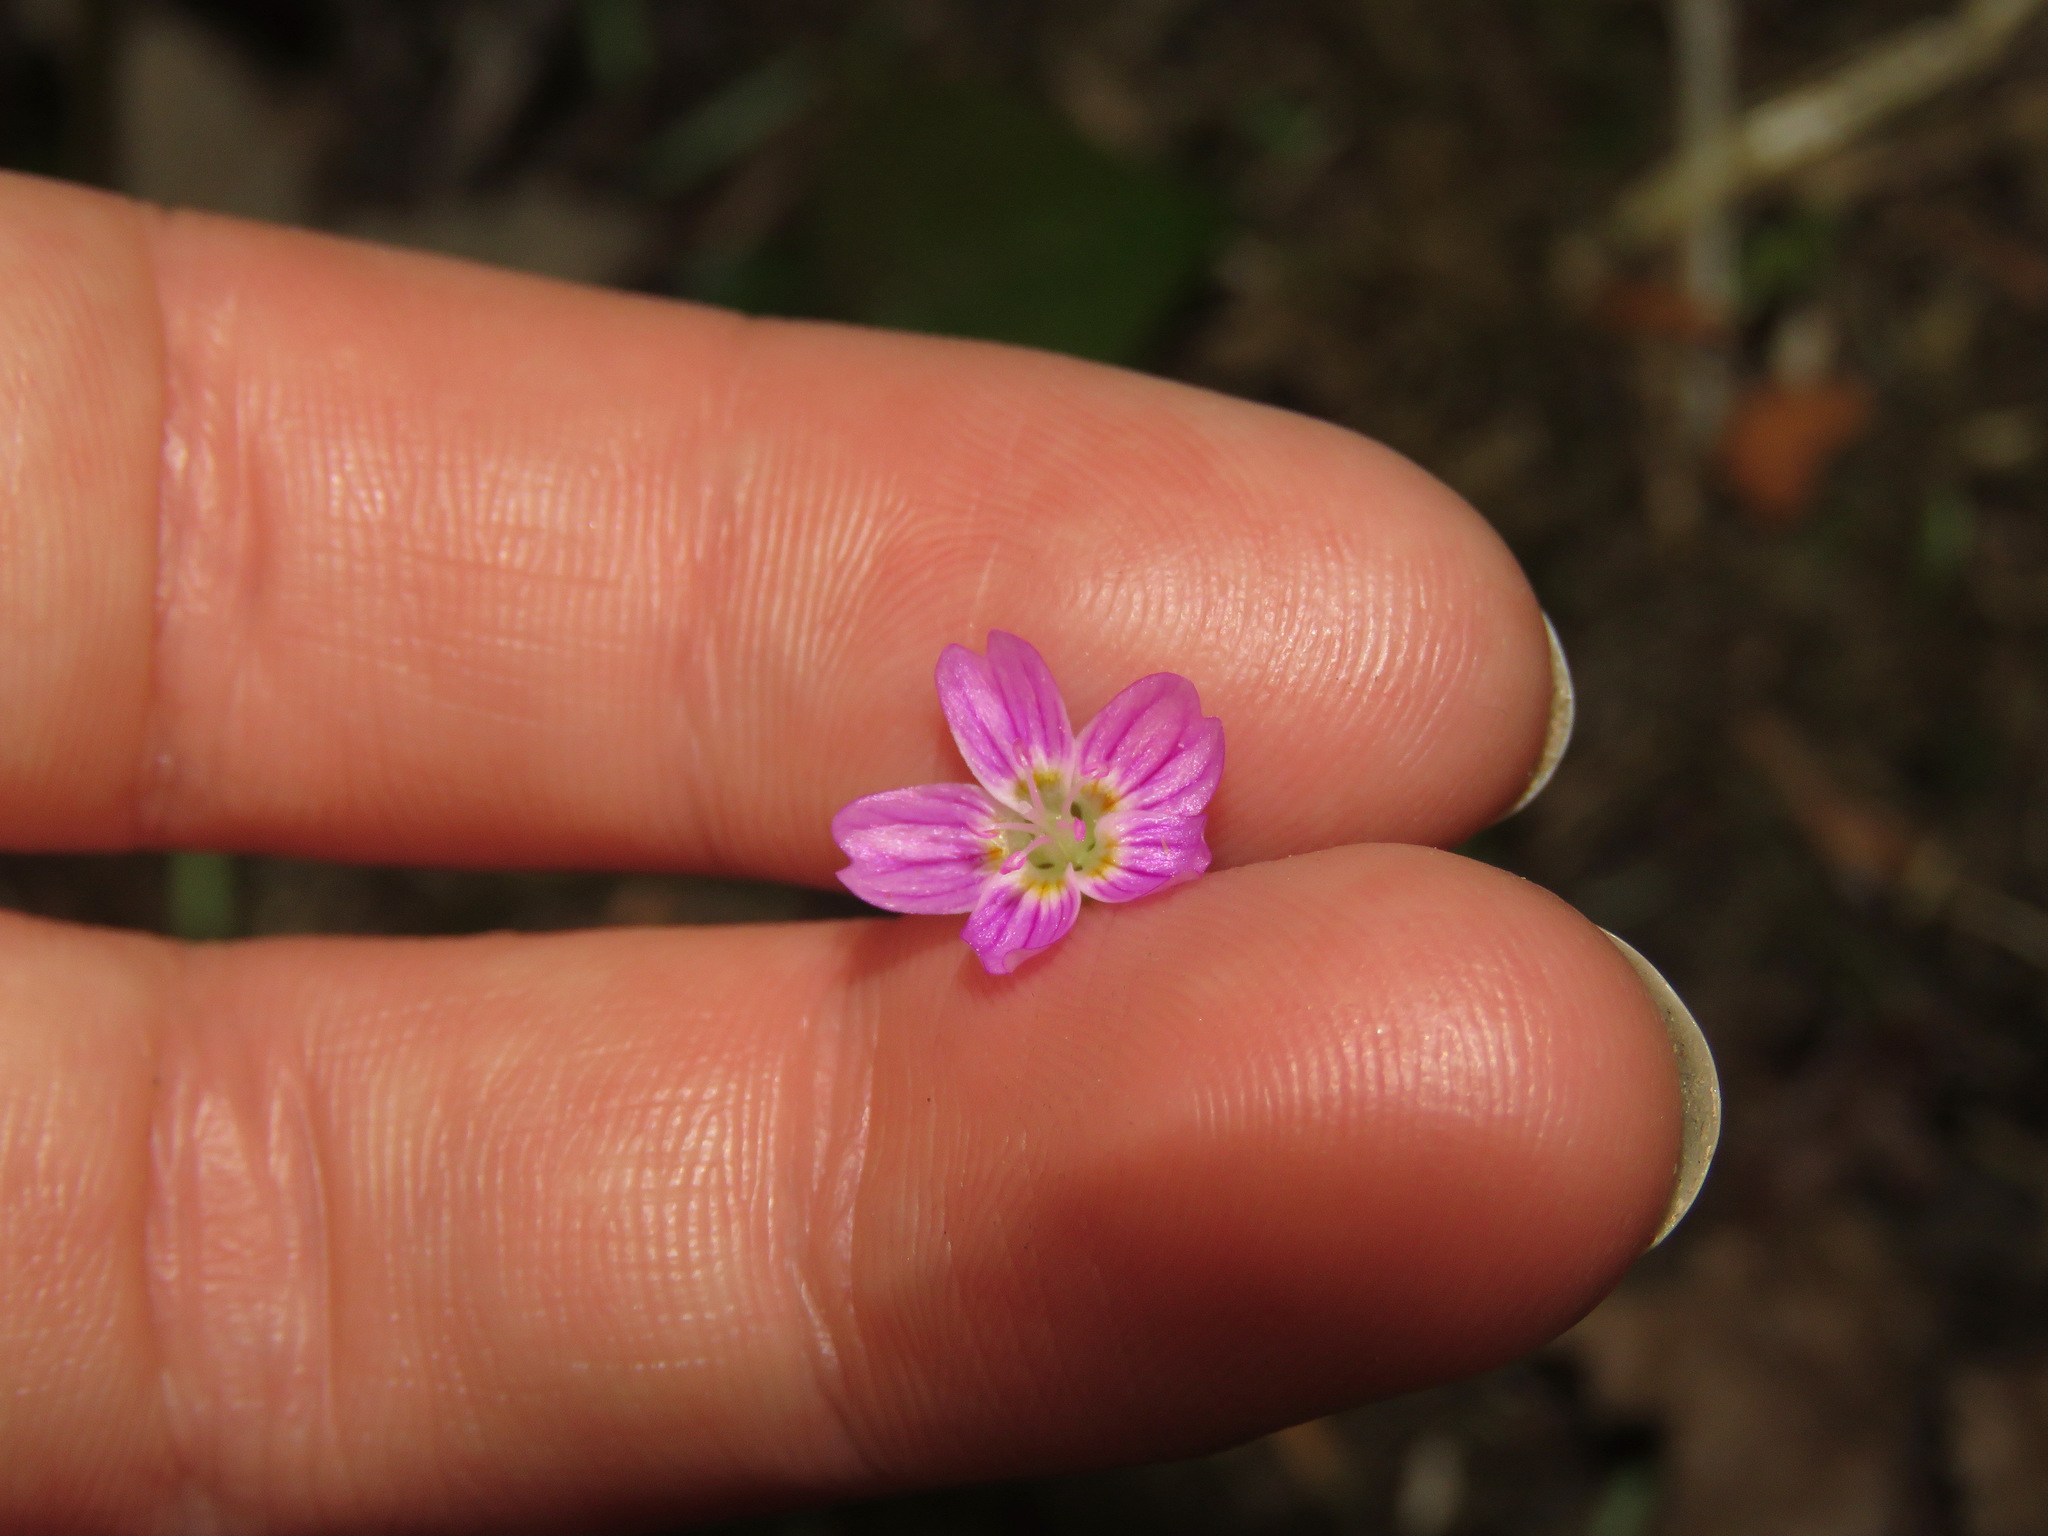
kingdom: Plantae
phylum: Tracheophyta
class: Magnoliopsida
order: Caryophyllales
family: Montiaceae
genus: Claytonia
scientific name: Claytonia sibirica
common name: Pink purslane
